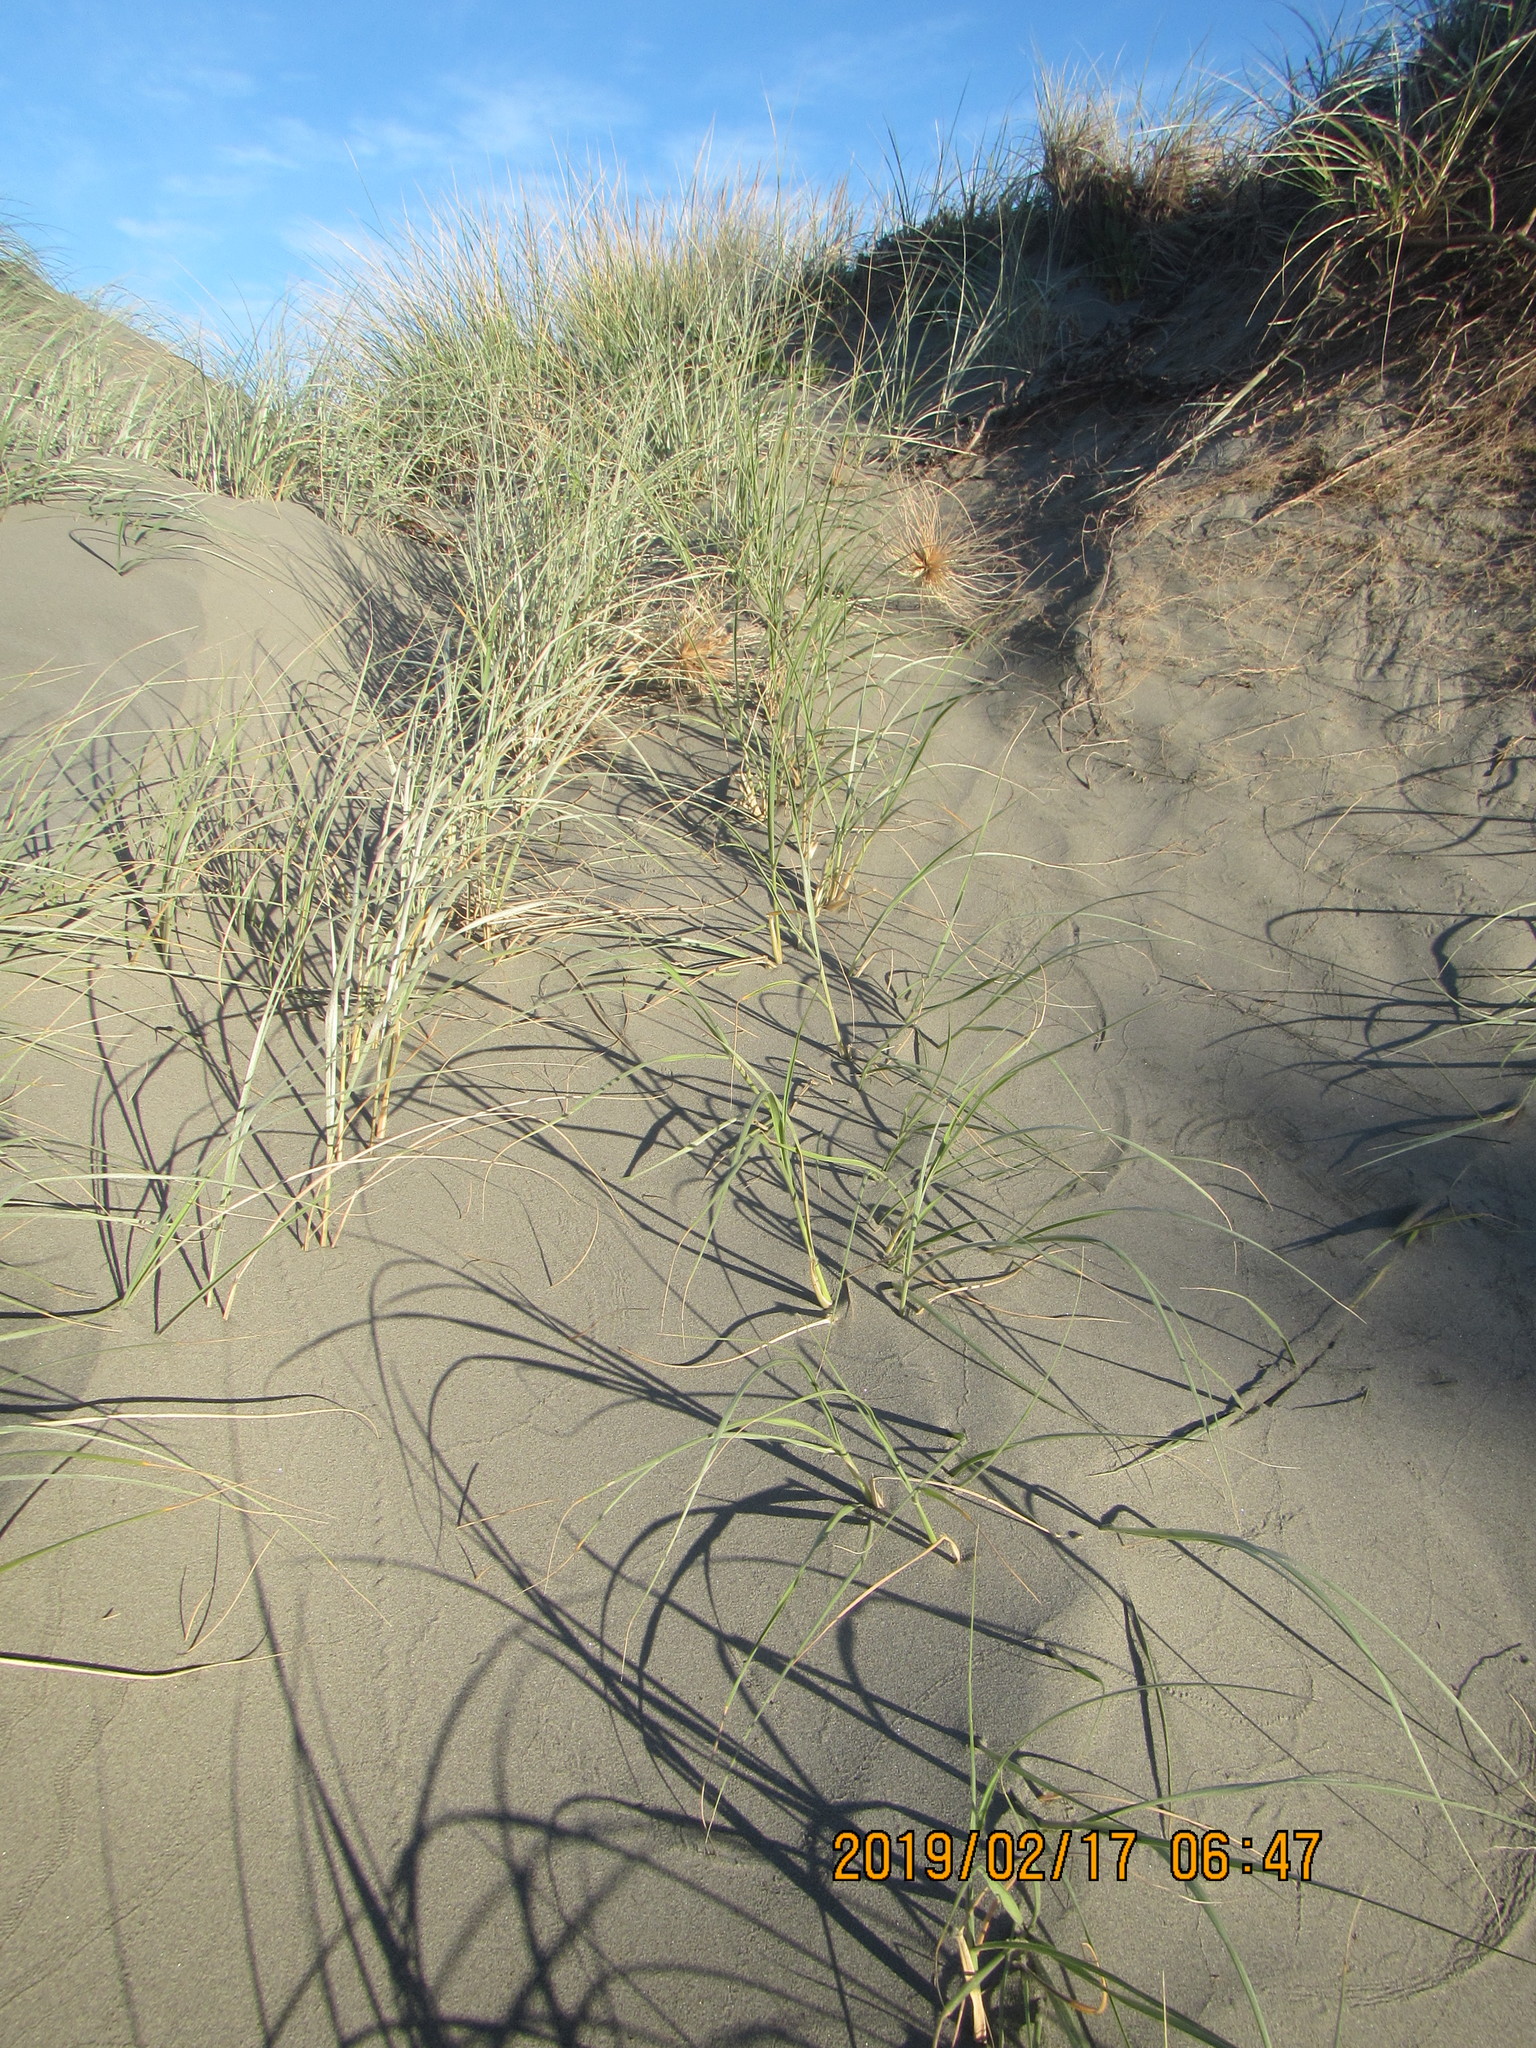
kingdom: Plantae
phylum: Tracheophyta
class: Liliopsida
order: Poales
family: Poaceae
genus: Spinifex
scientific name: Spinifex sericeus
